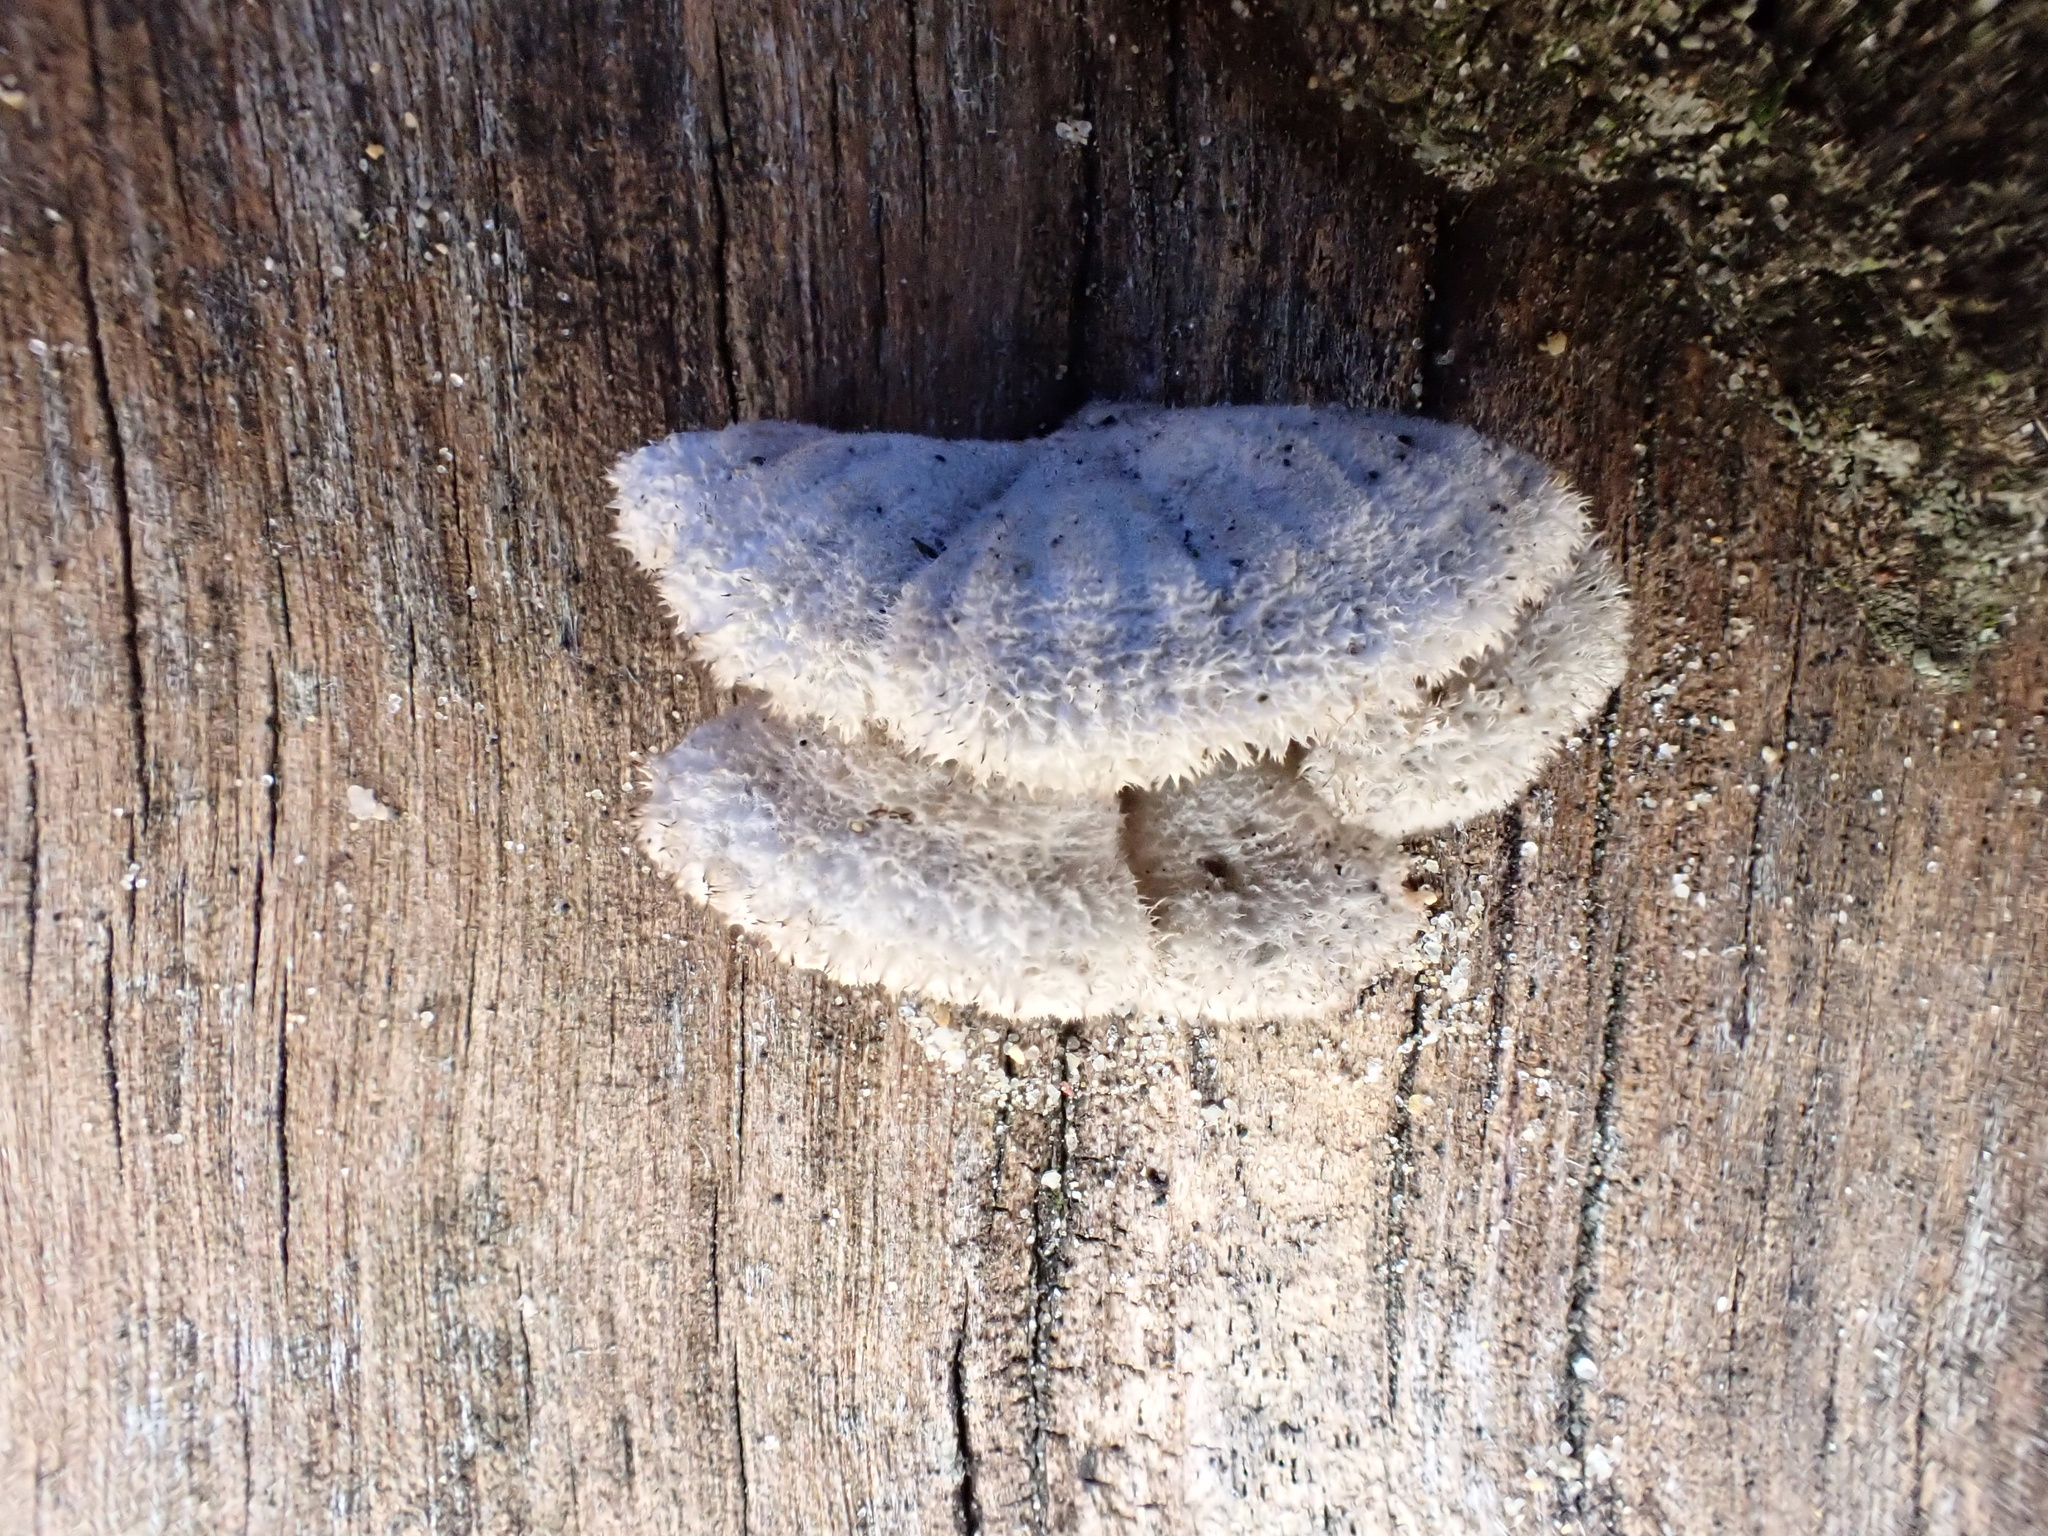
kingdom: Fungi
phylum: Basidiomycota
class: Agaricomycetes
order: Agaricales
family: Schizophyllaceae
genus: Schizophyllum
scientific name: Schizophyllum commune
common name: Common porecrust
